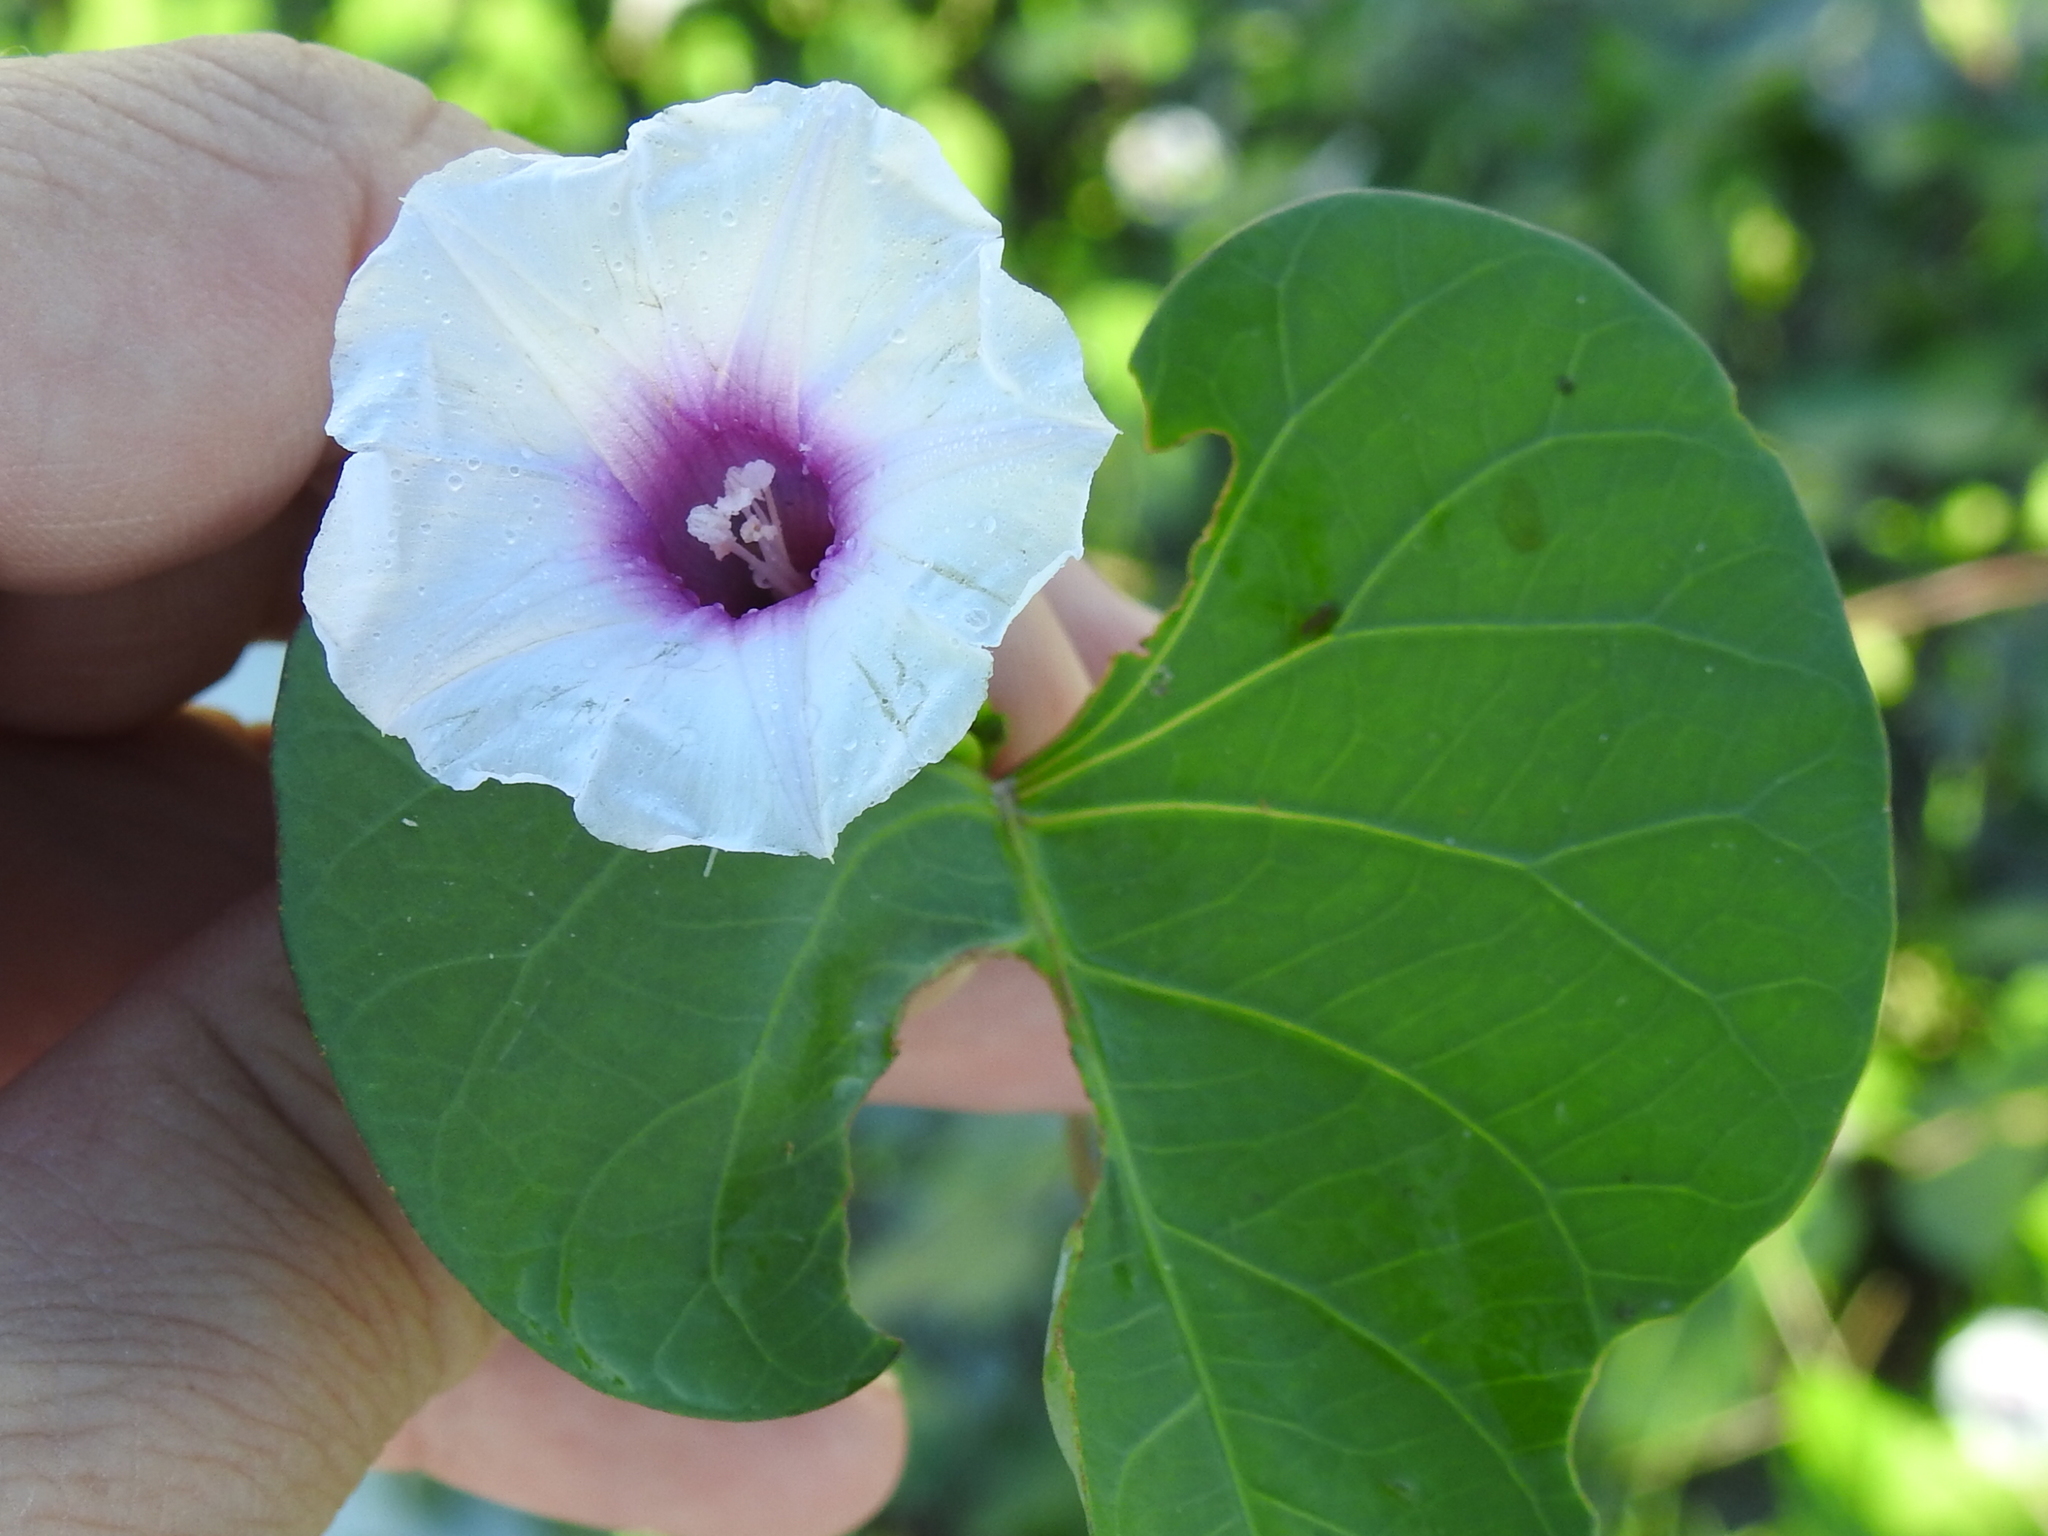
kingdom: Plantae
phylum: Tracheophyta
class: Magnoliopsida
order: Solanales
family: Convolvulaceae
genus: Ipomoea
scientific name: Ipomoea amnicola
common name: Redcenter morning-glory
